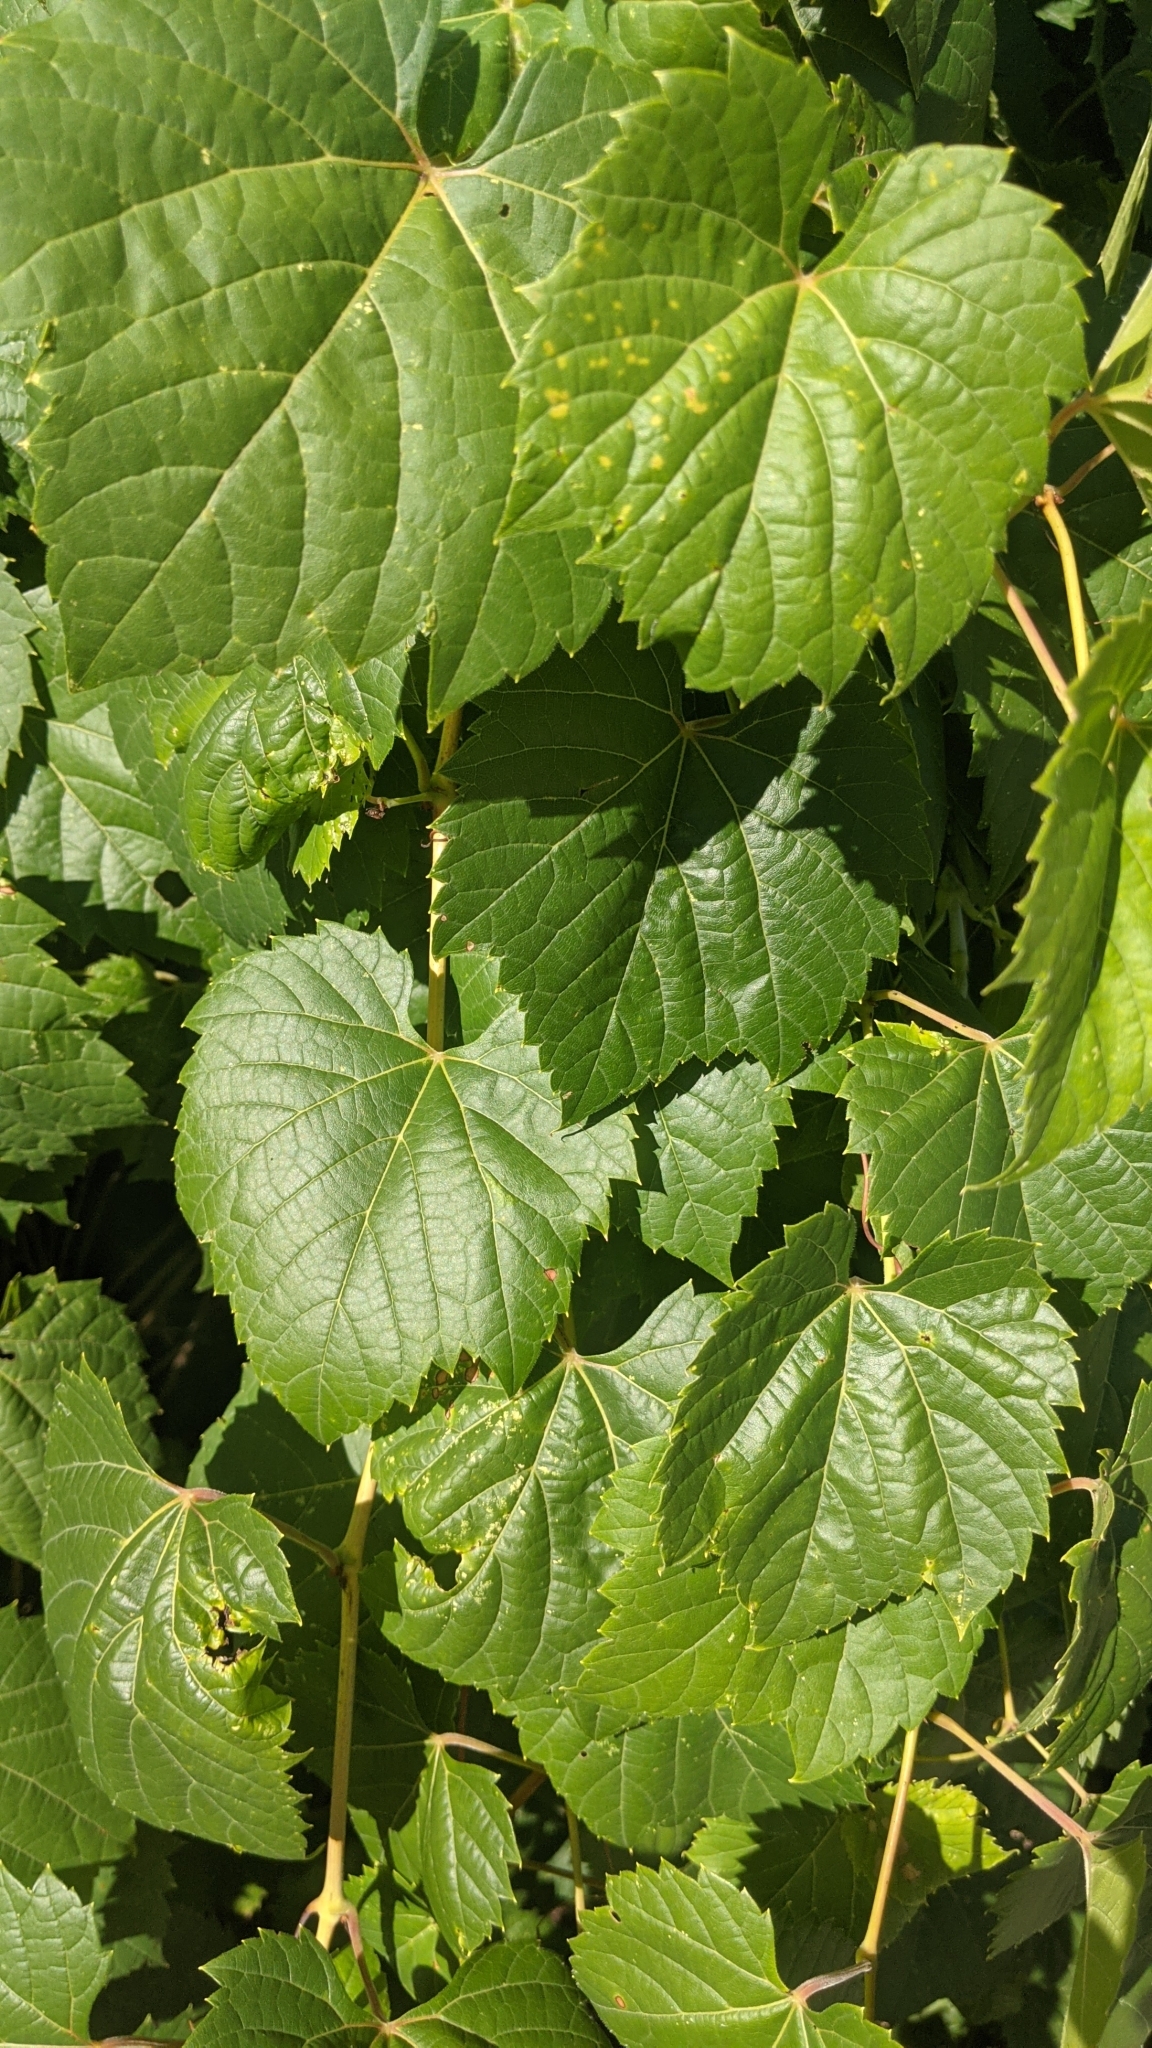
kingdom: Plantae
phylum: Tracheophyta
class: Magnoliopsida
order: Vitales
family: Vitaceae
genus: Vitis
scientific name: Vitis riparia
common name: Frost grape
